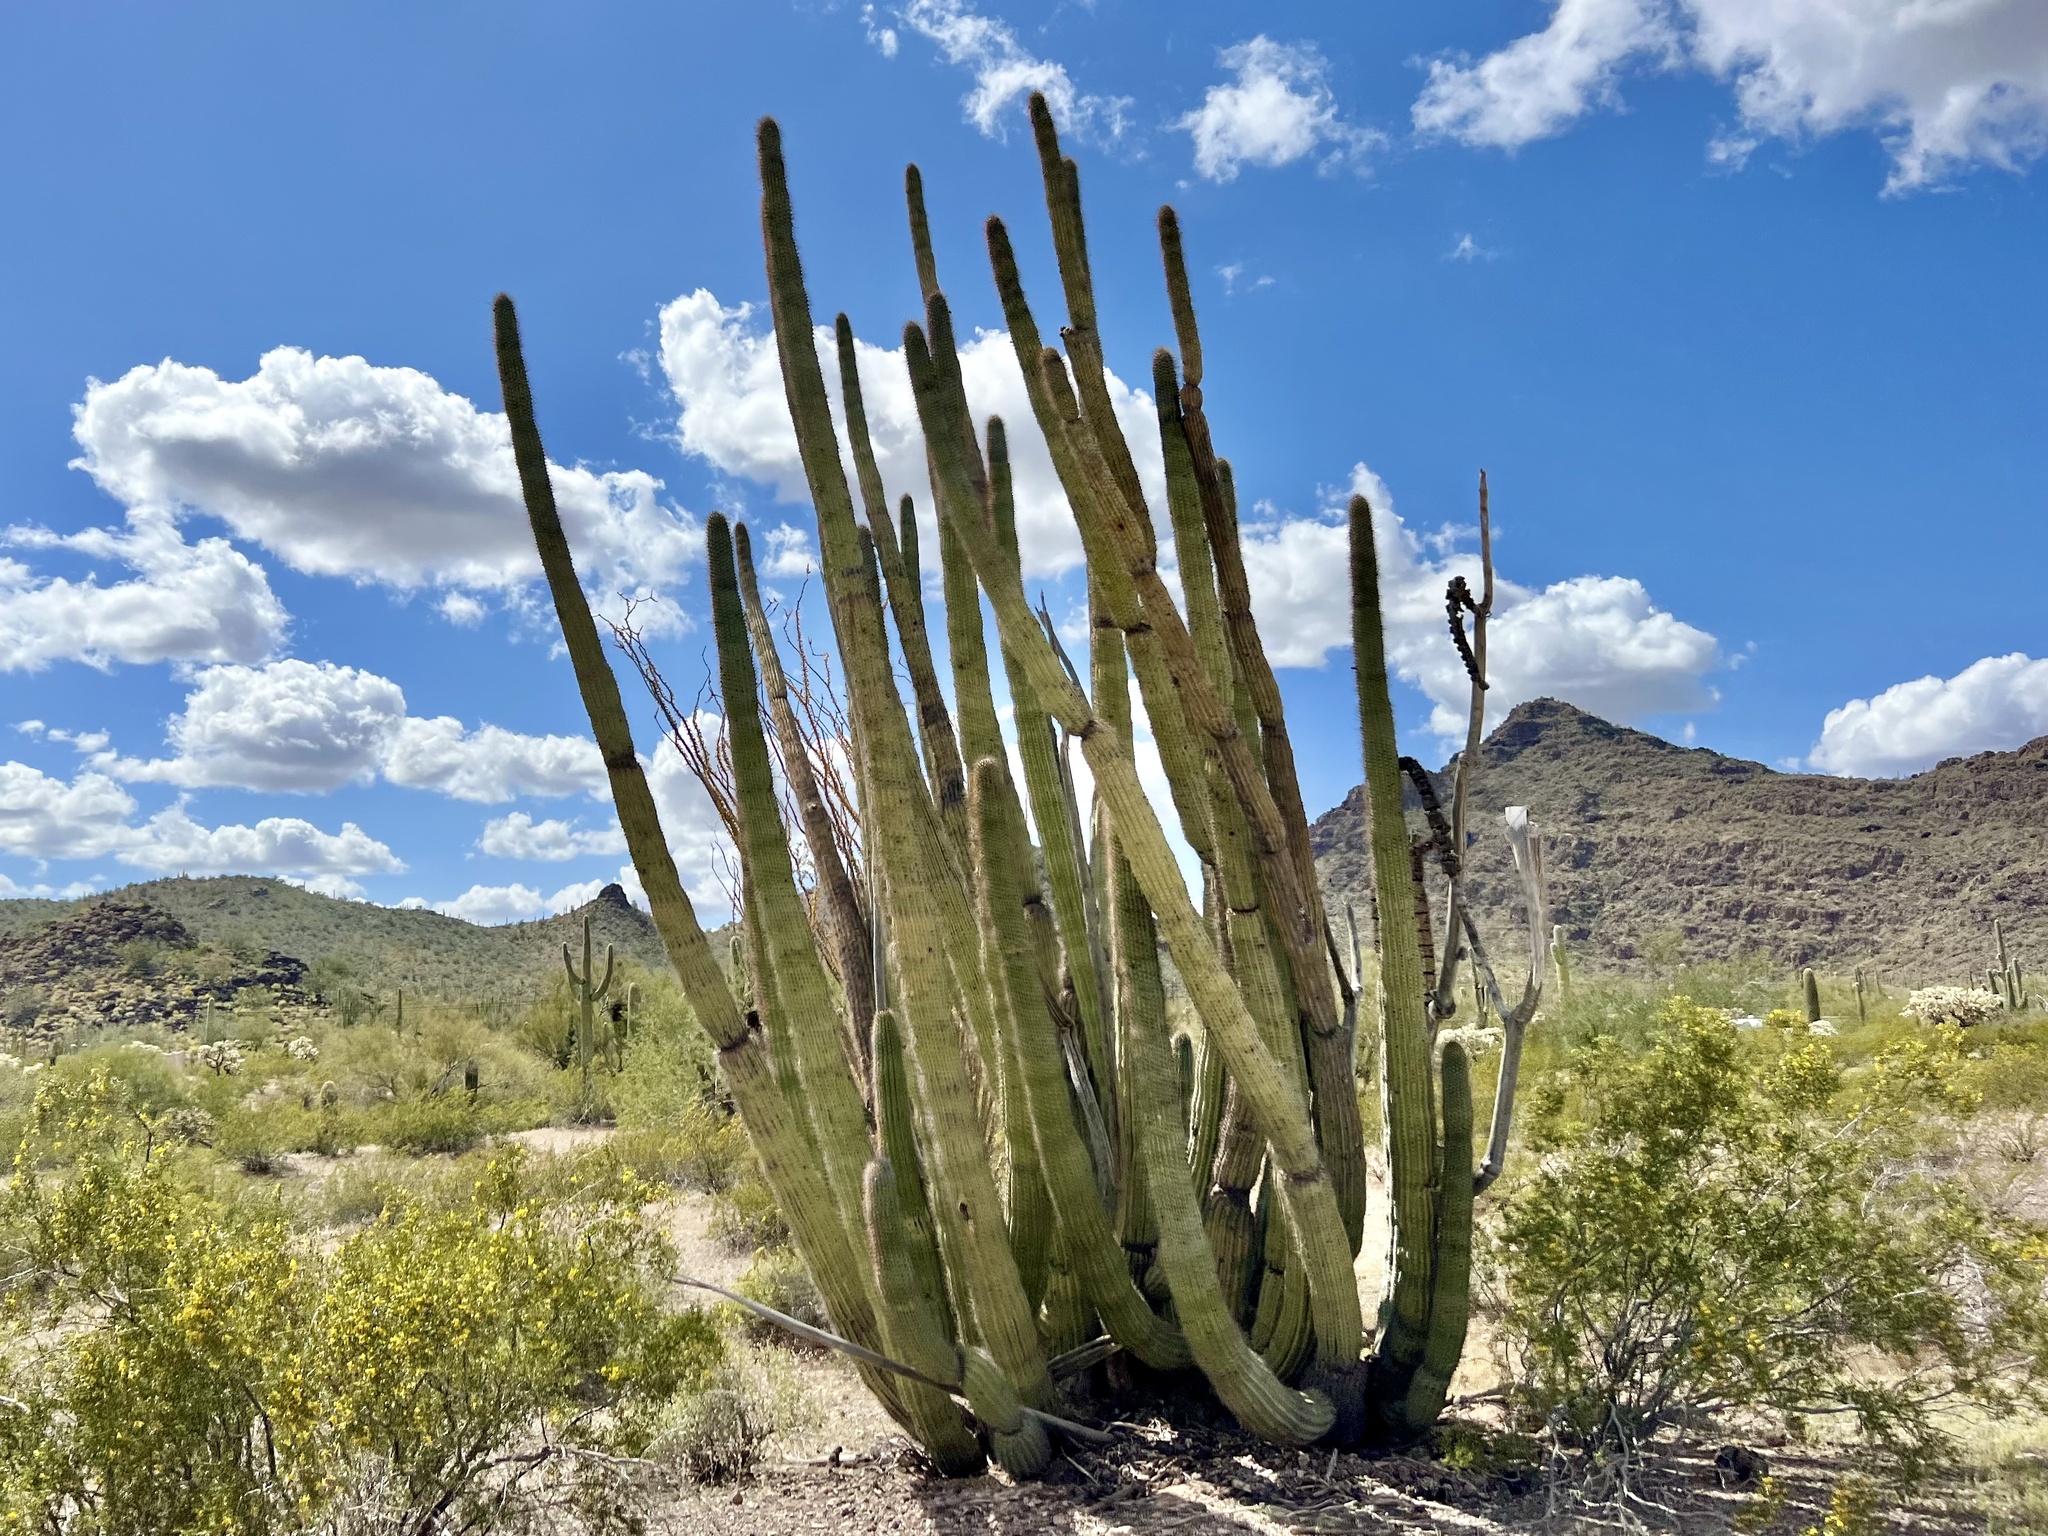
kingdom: Plantae
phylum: Tracheophyta
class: Magnoliopsida
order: Caryophyllales
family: Cactaceae
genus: Stenocereus
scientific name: Stenocereus thurberi
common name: Organ pipe cactus
